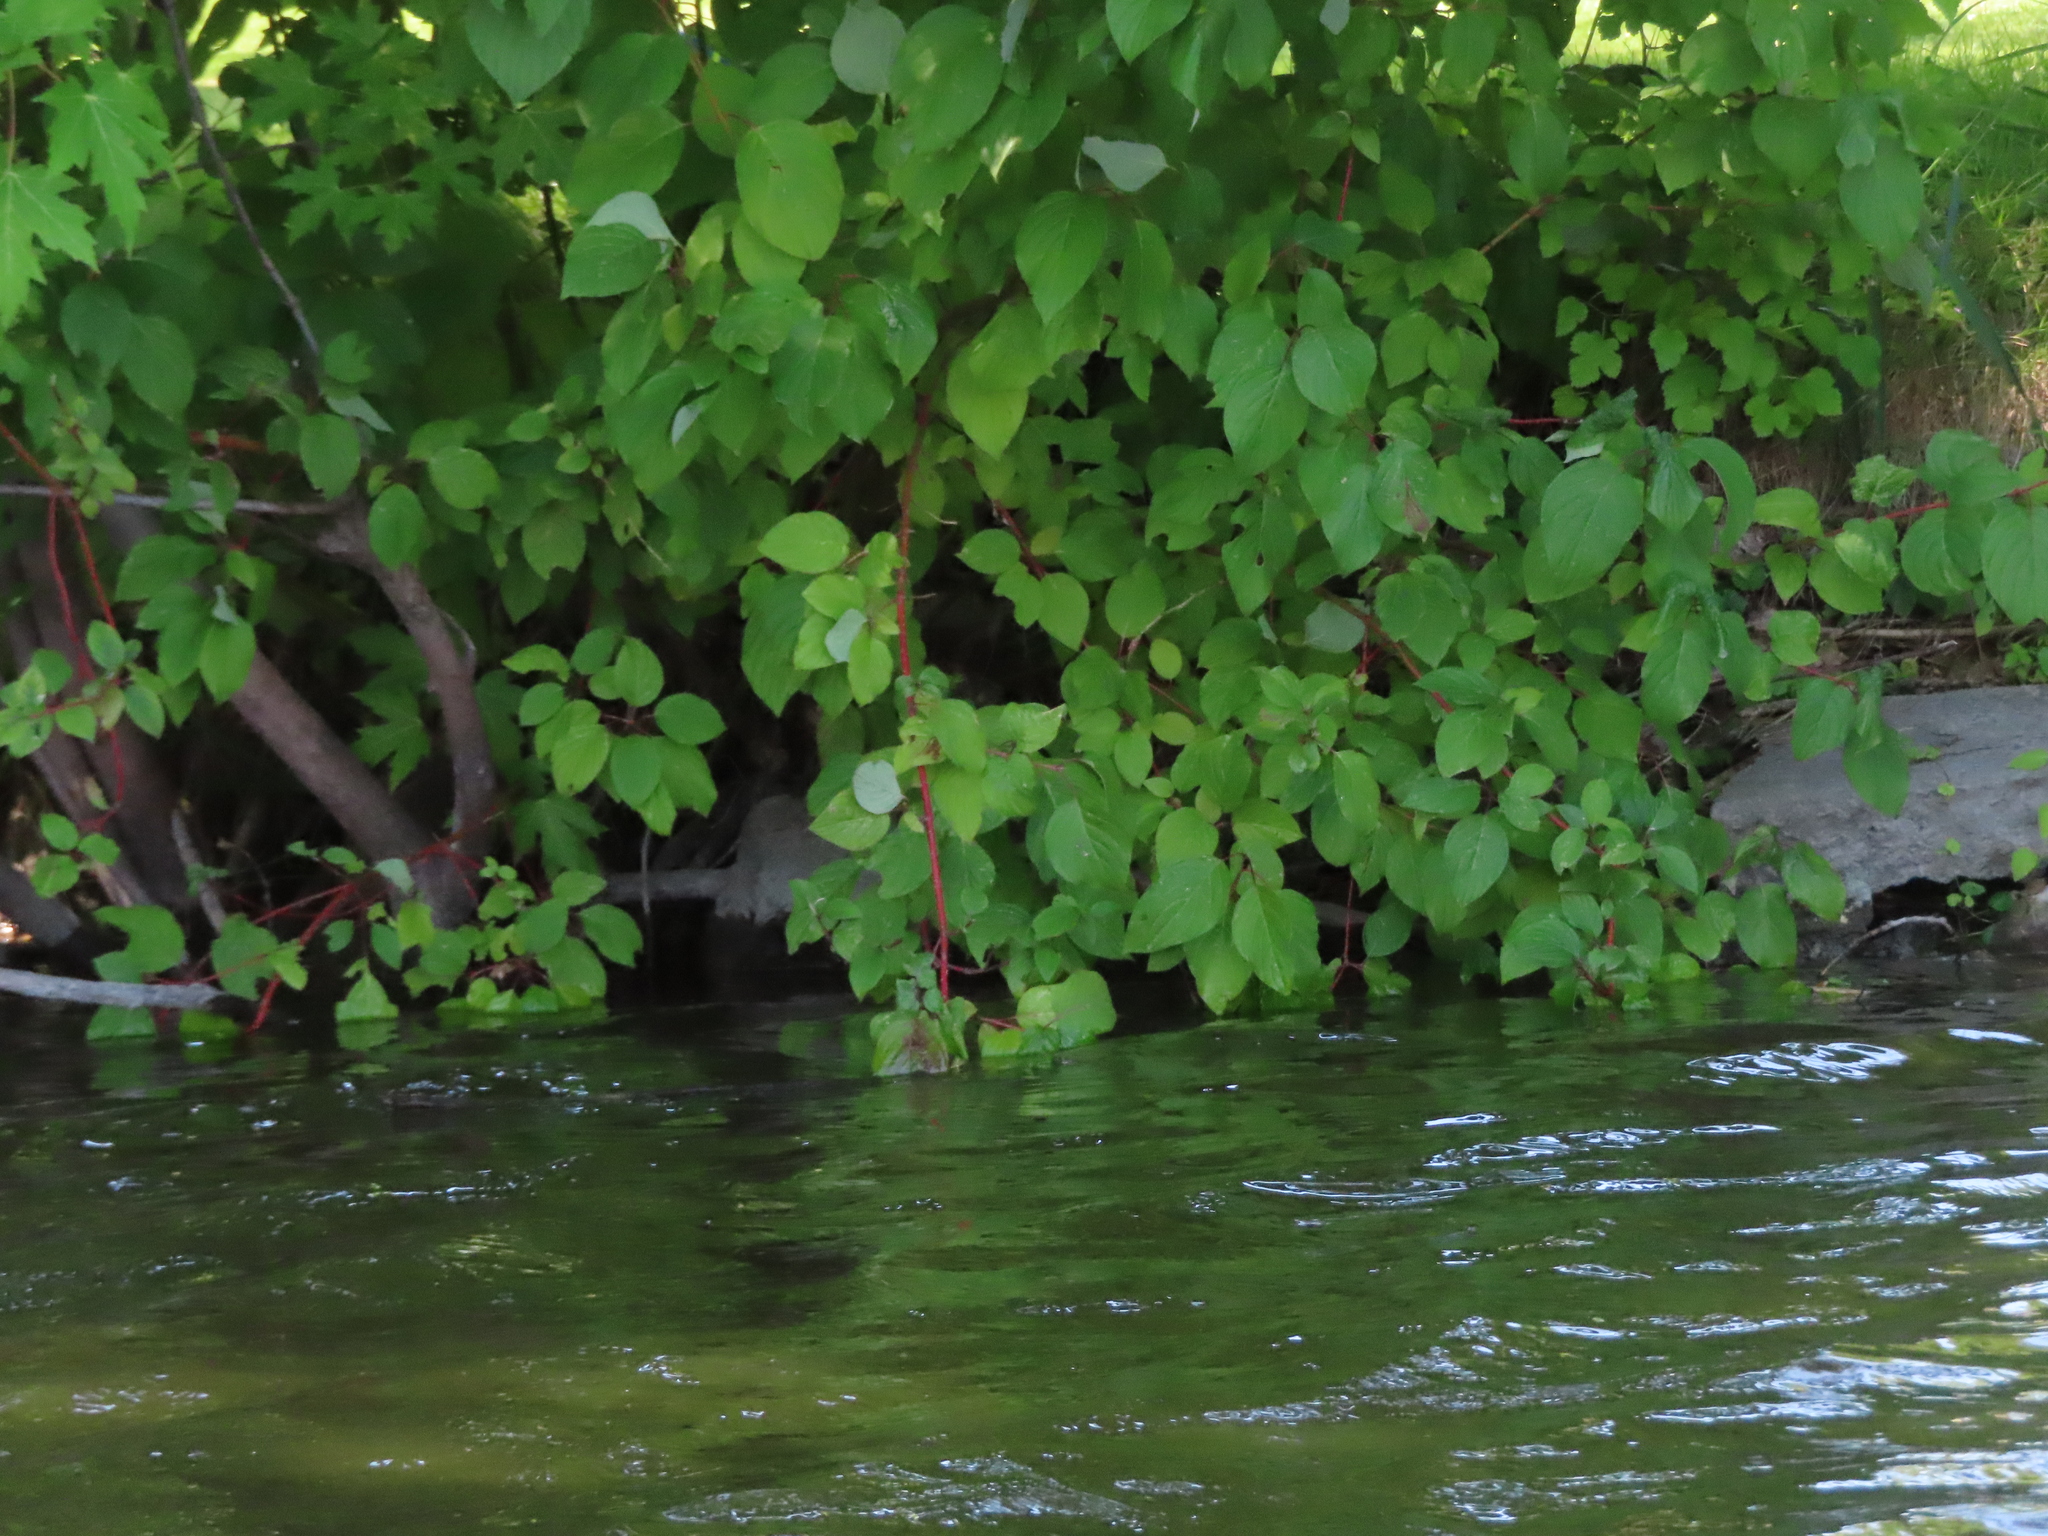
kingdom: Plantae
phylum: Tracheophyta
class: Magnoliopsida
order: Cornales
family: Cornaceae
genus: Cornus
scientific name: Cornus sericea
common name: Red-osier dogwood
